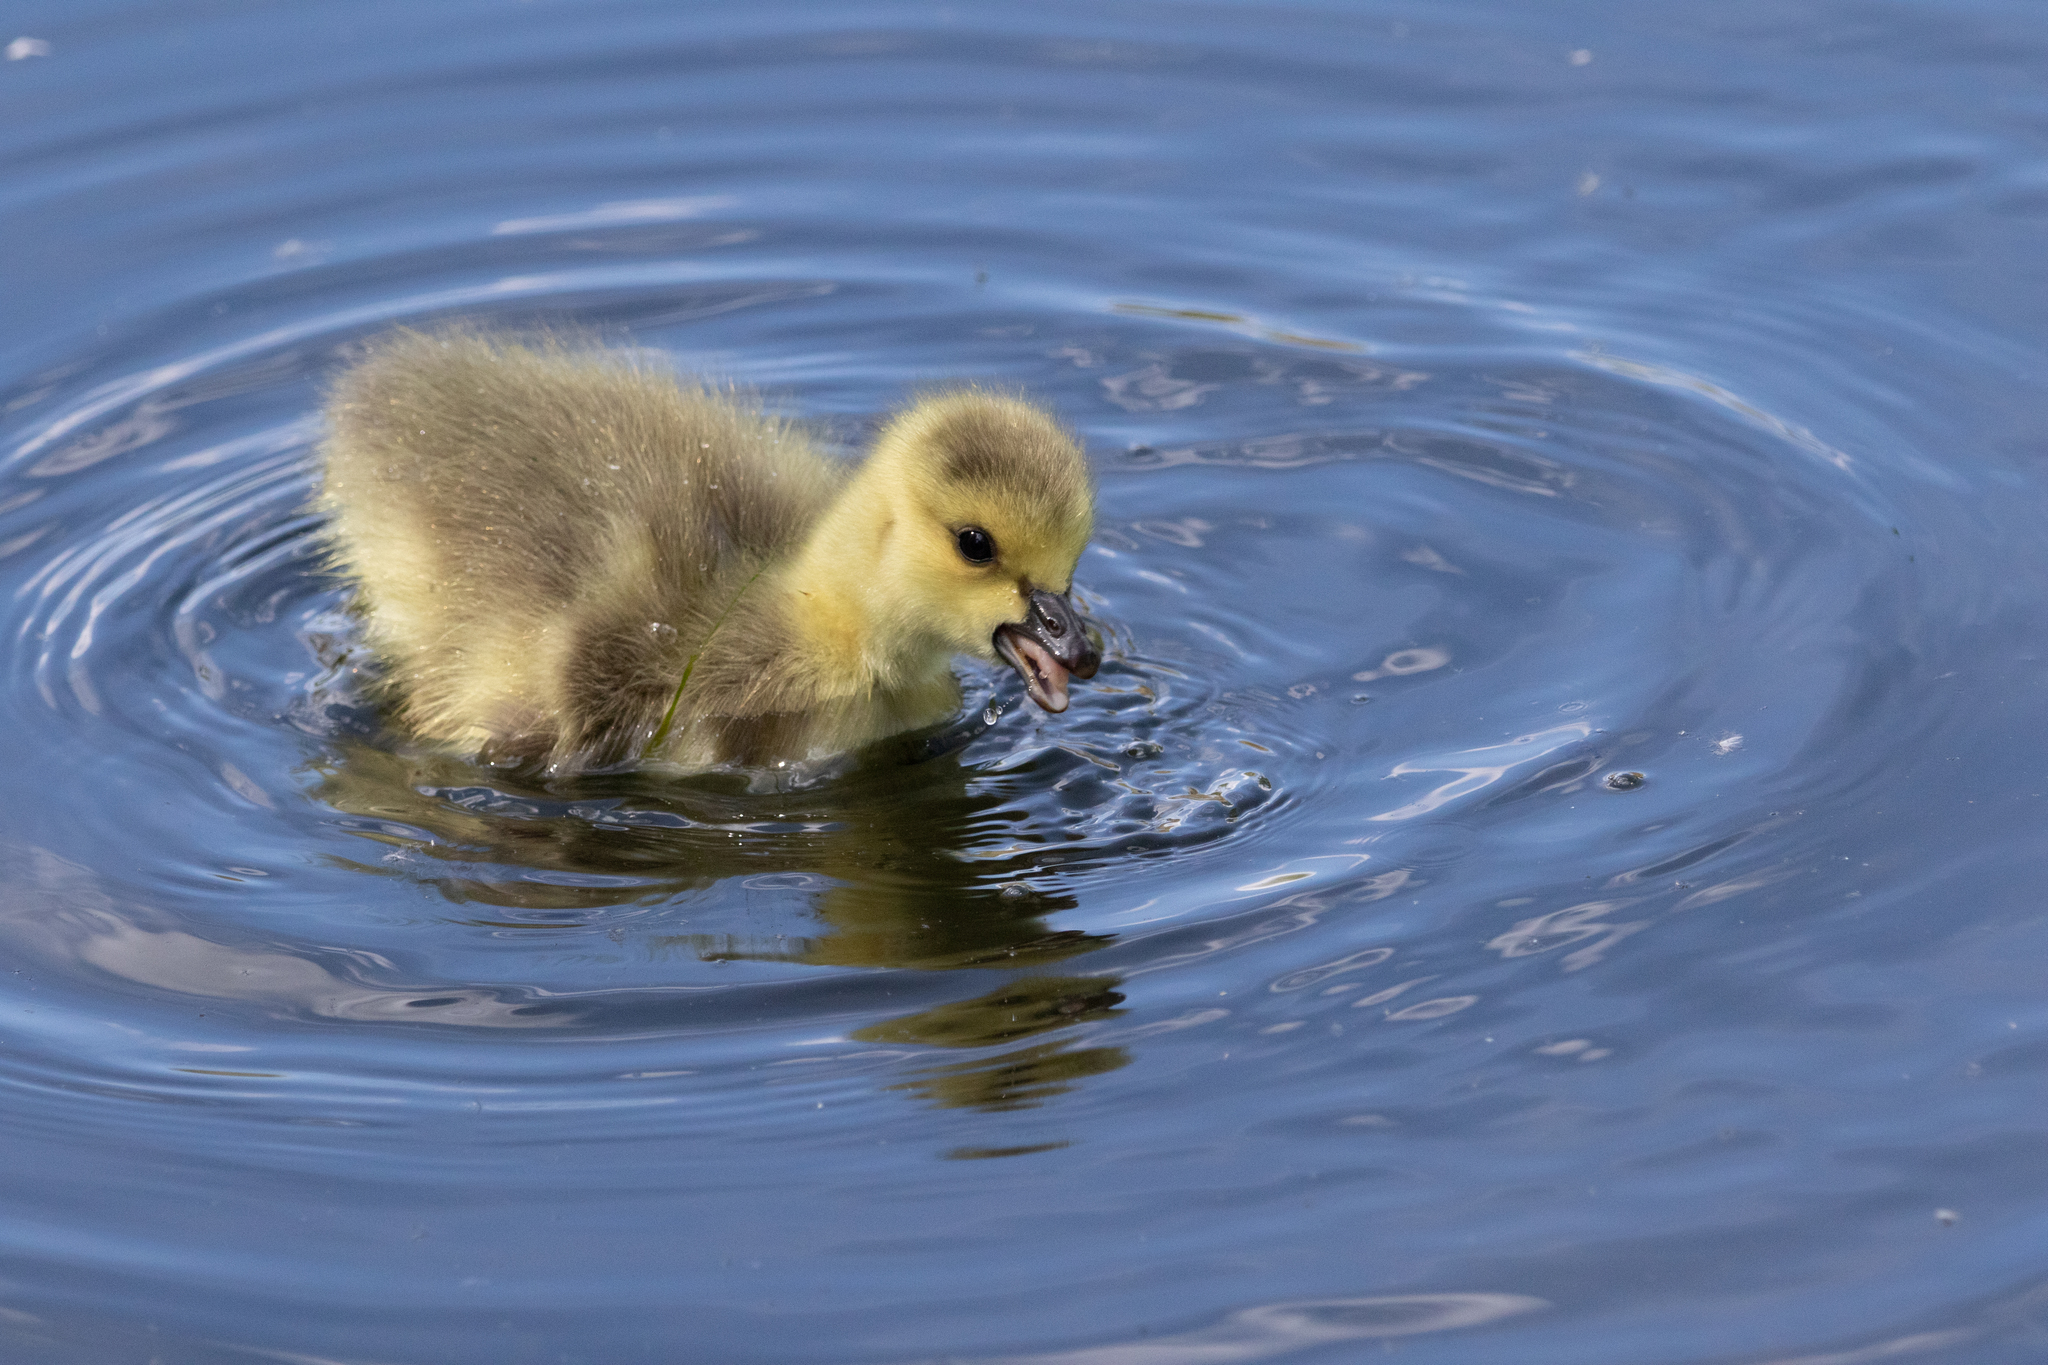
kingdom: Animalia
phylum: Chordata
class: Aves
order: Anseriformes
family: Anatidae
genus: Branta
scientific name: Branta canadensis
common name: Canada goose
